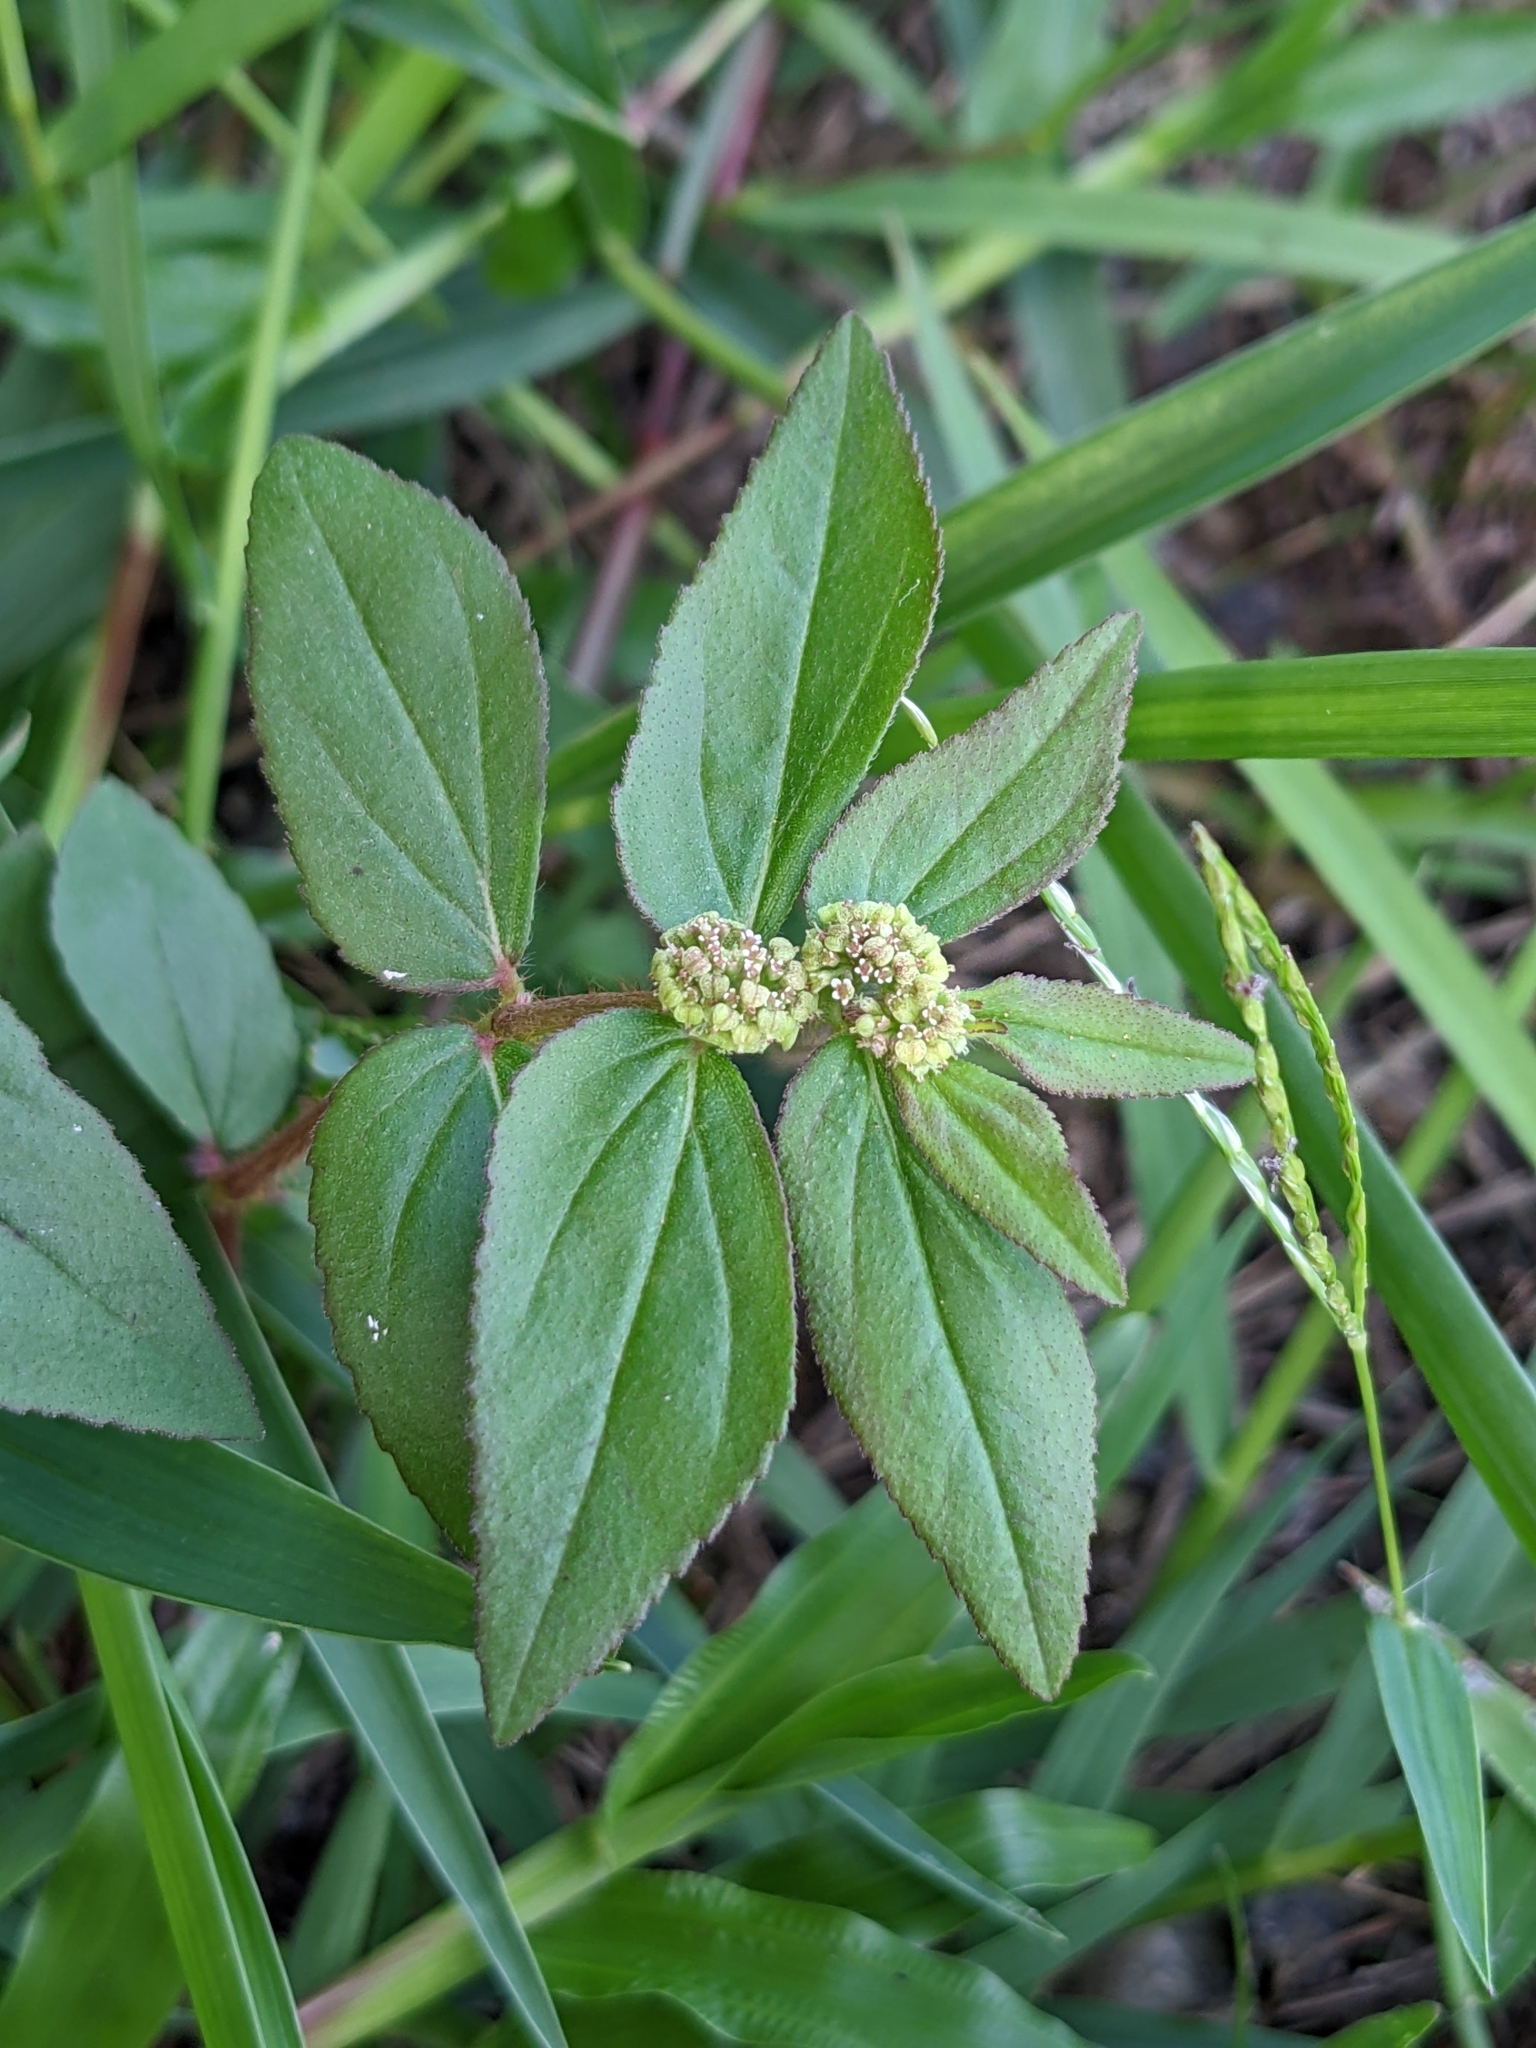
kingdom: Plantae
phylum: Tracheophyta
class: Magnoliopsida
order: Malpighiales
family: Euphorbiaceae
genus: Euphorbia
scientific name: Euphorbia hirta
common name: Pillpod sandmat
